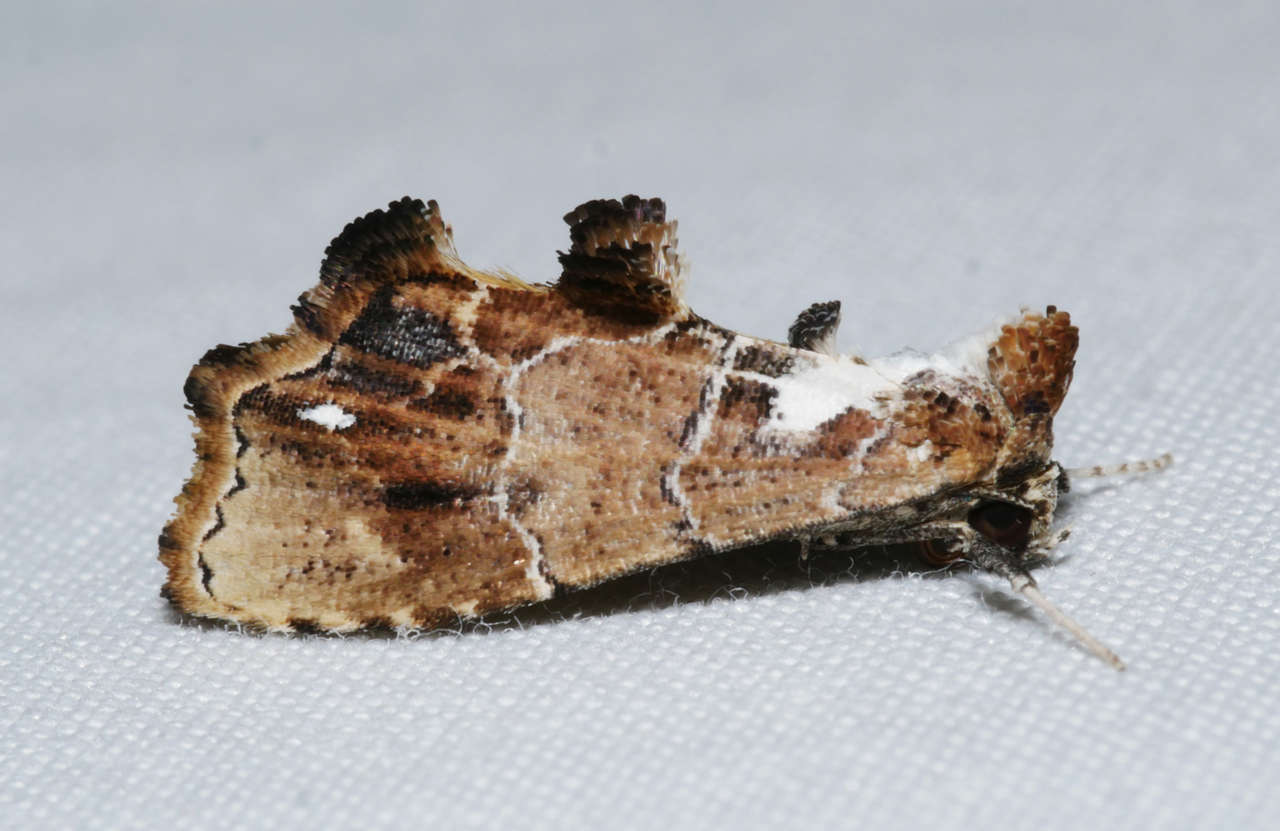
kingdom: Animalia
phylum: Arthropoda
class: Insecta
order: Lepidoptera
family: Erebidae
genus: Arrade
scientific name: Arrade leucocosmalis
